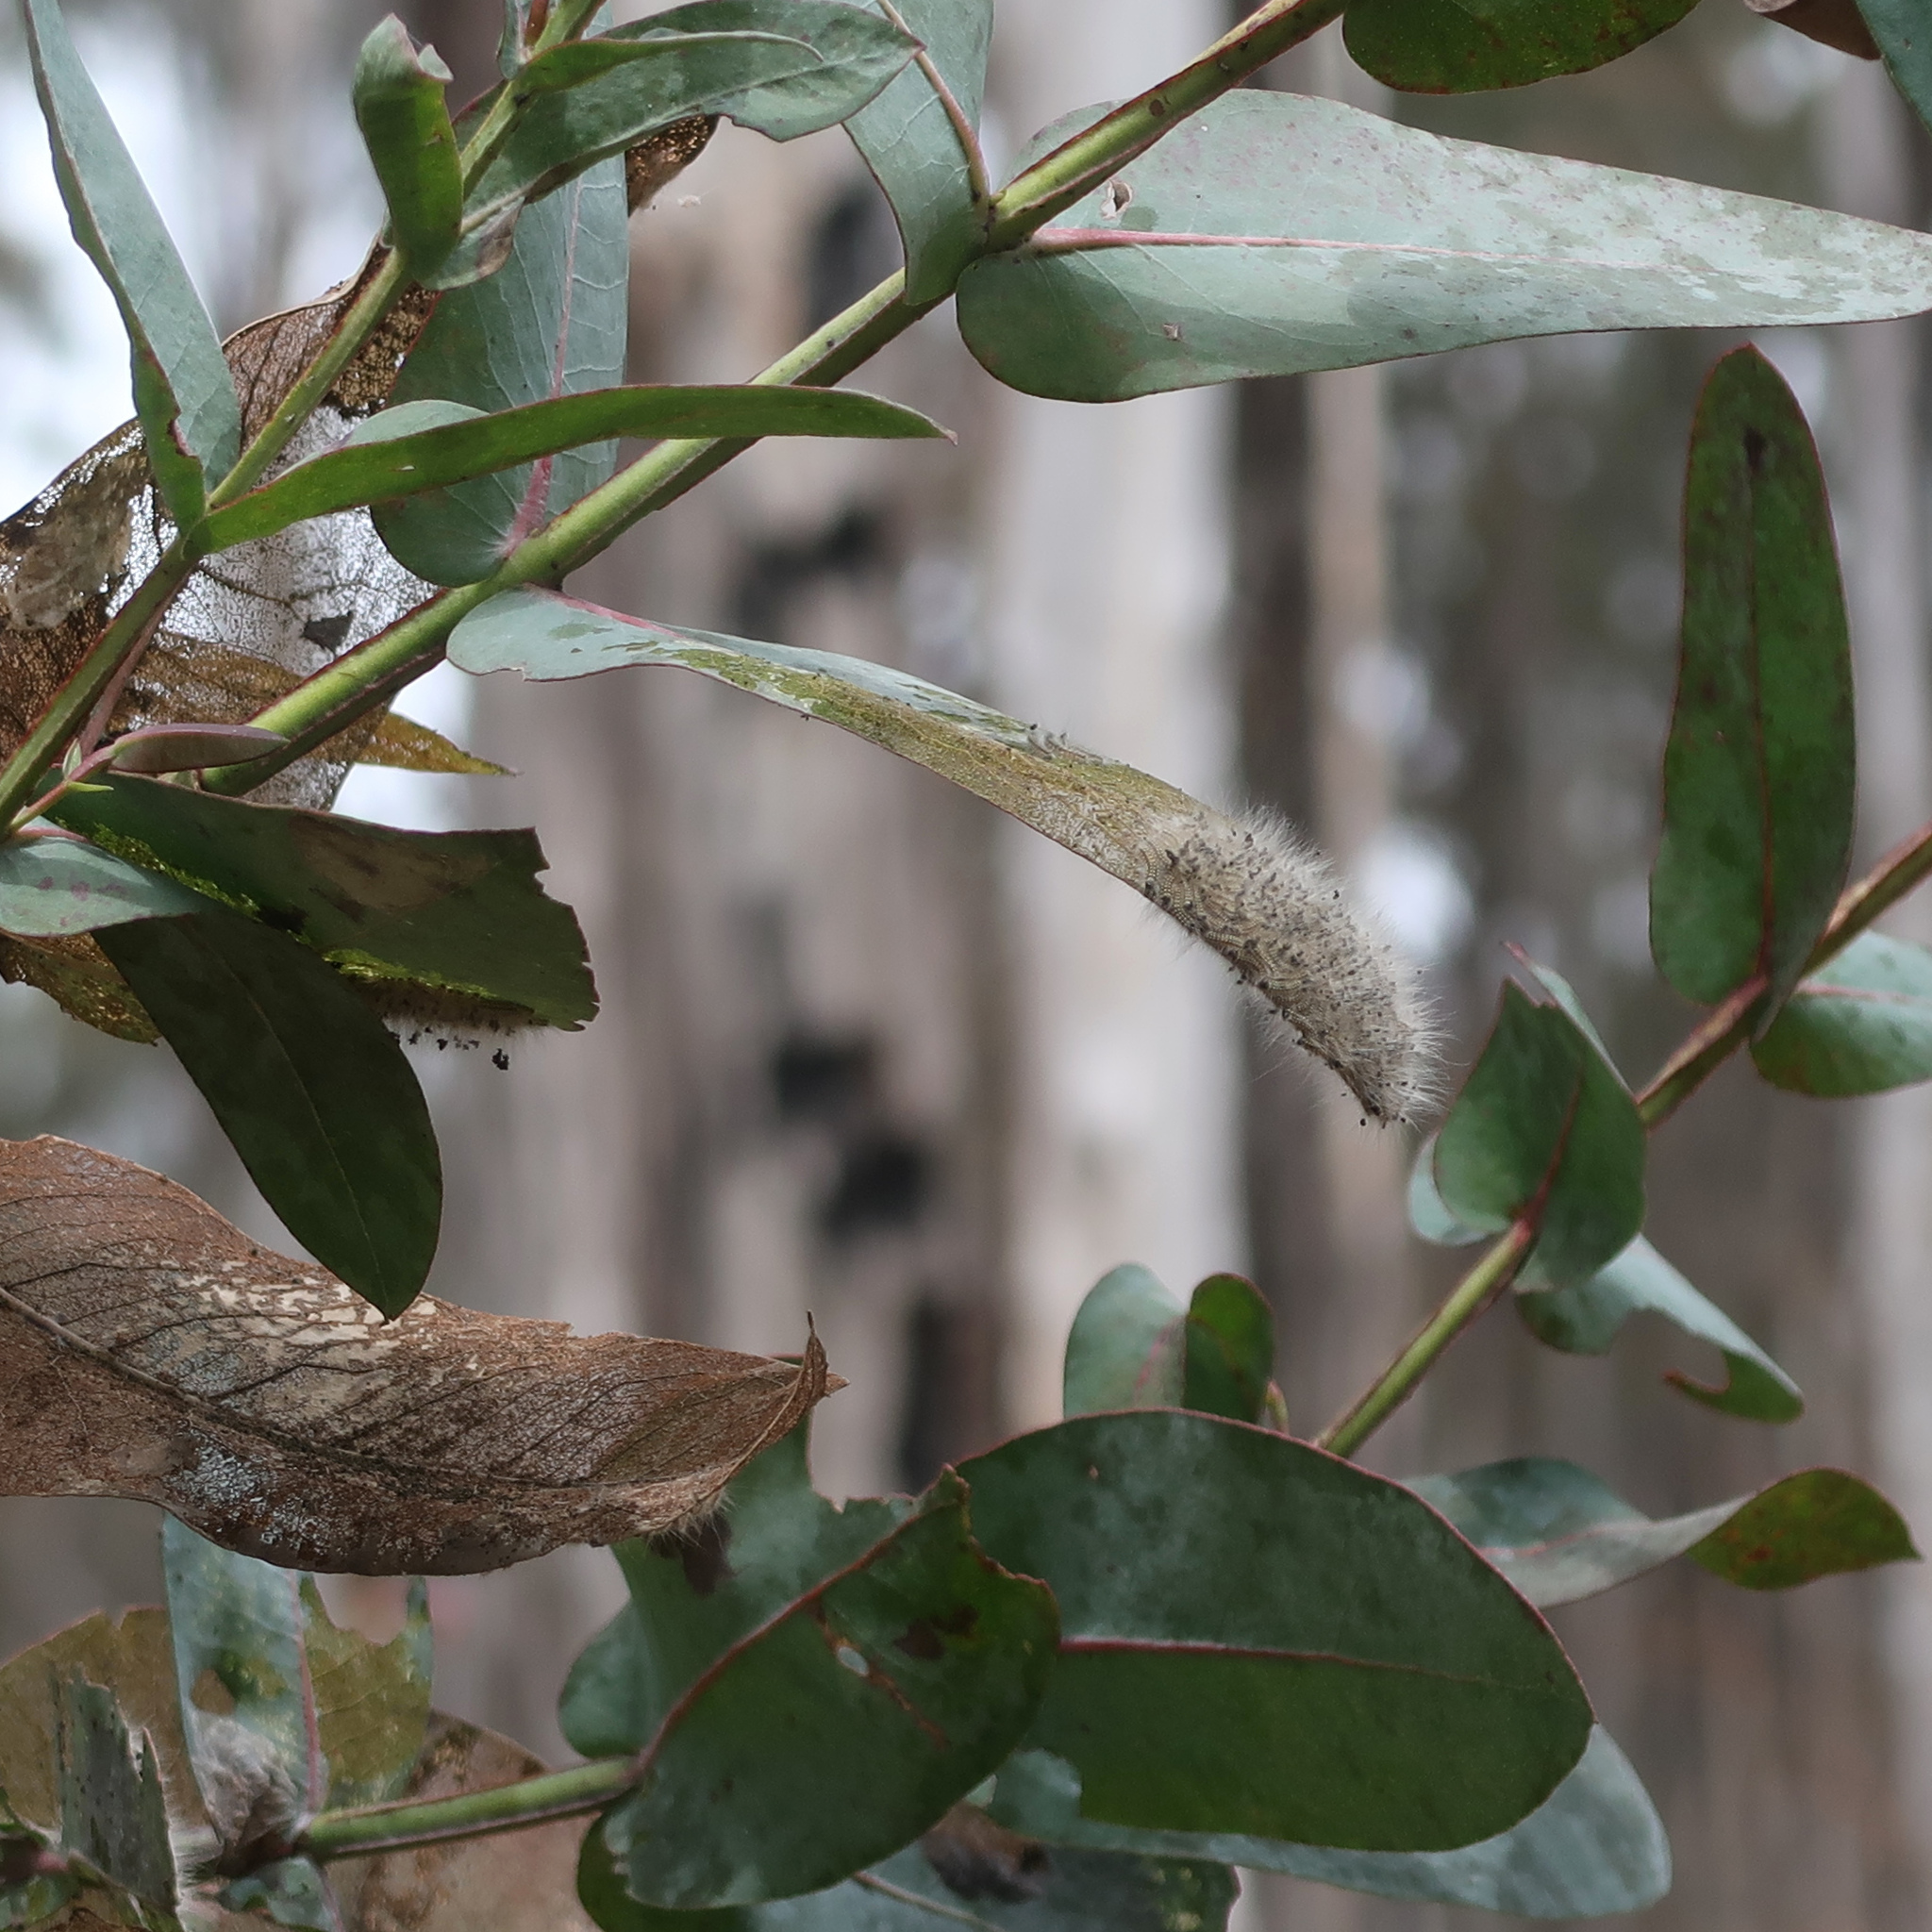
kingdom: Animalia
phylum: Arthropoda
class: Insecta
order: Lepidoptera
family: Nolidae
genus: Uraba
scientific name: Uraba lugens
